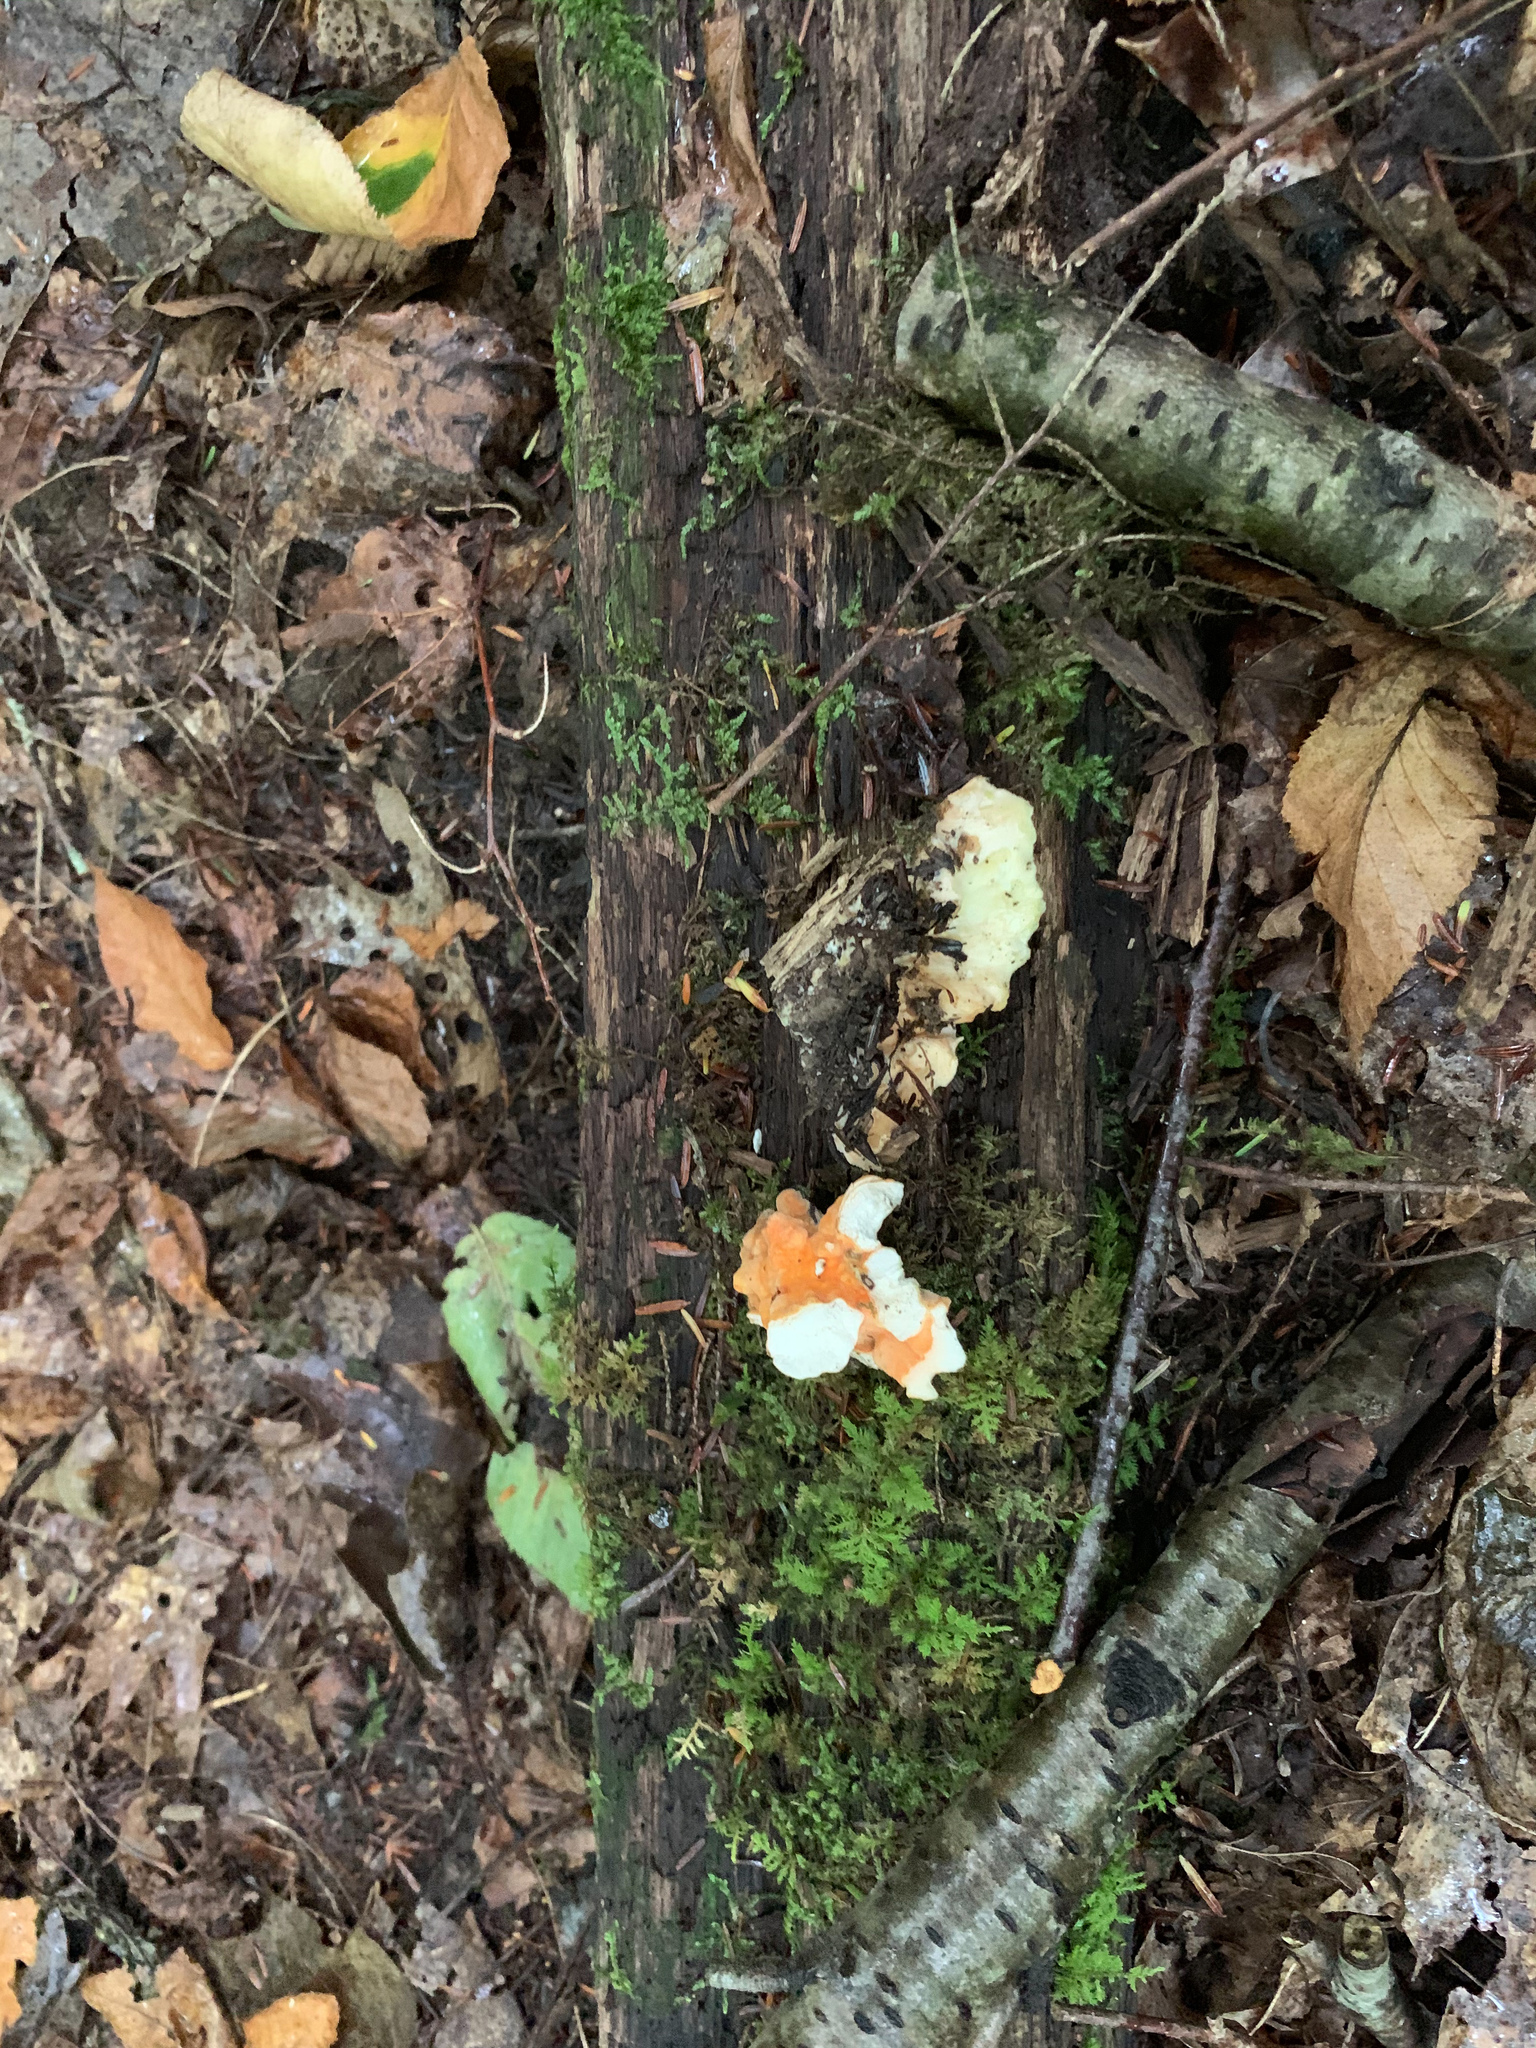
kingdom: Fungi
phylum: Basidiomycota
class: Agaricomycetes
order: Polyporales
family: Laetiporaceae
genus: Laetiporus
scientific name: Laetiporus sulphureus
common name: Chicken of the woods
